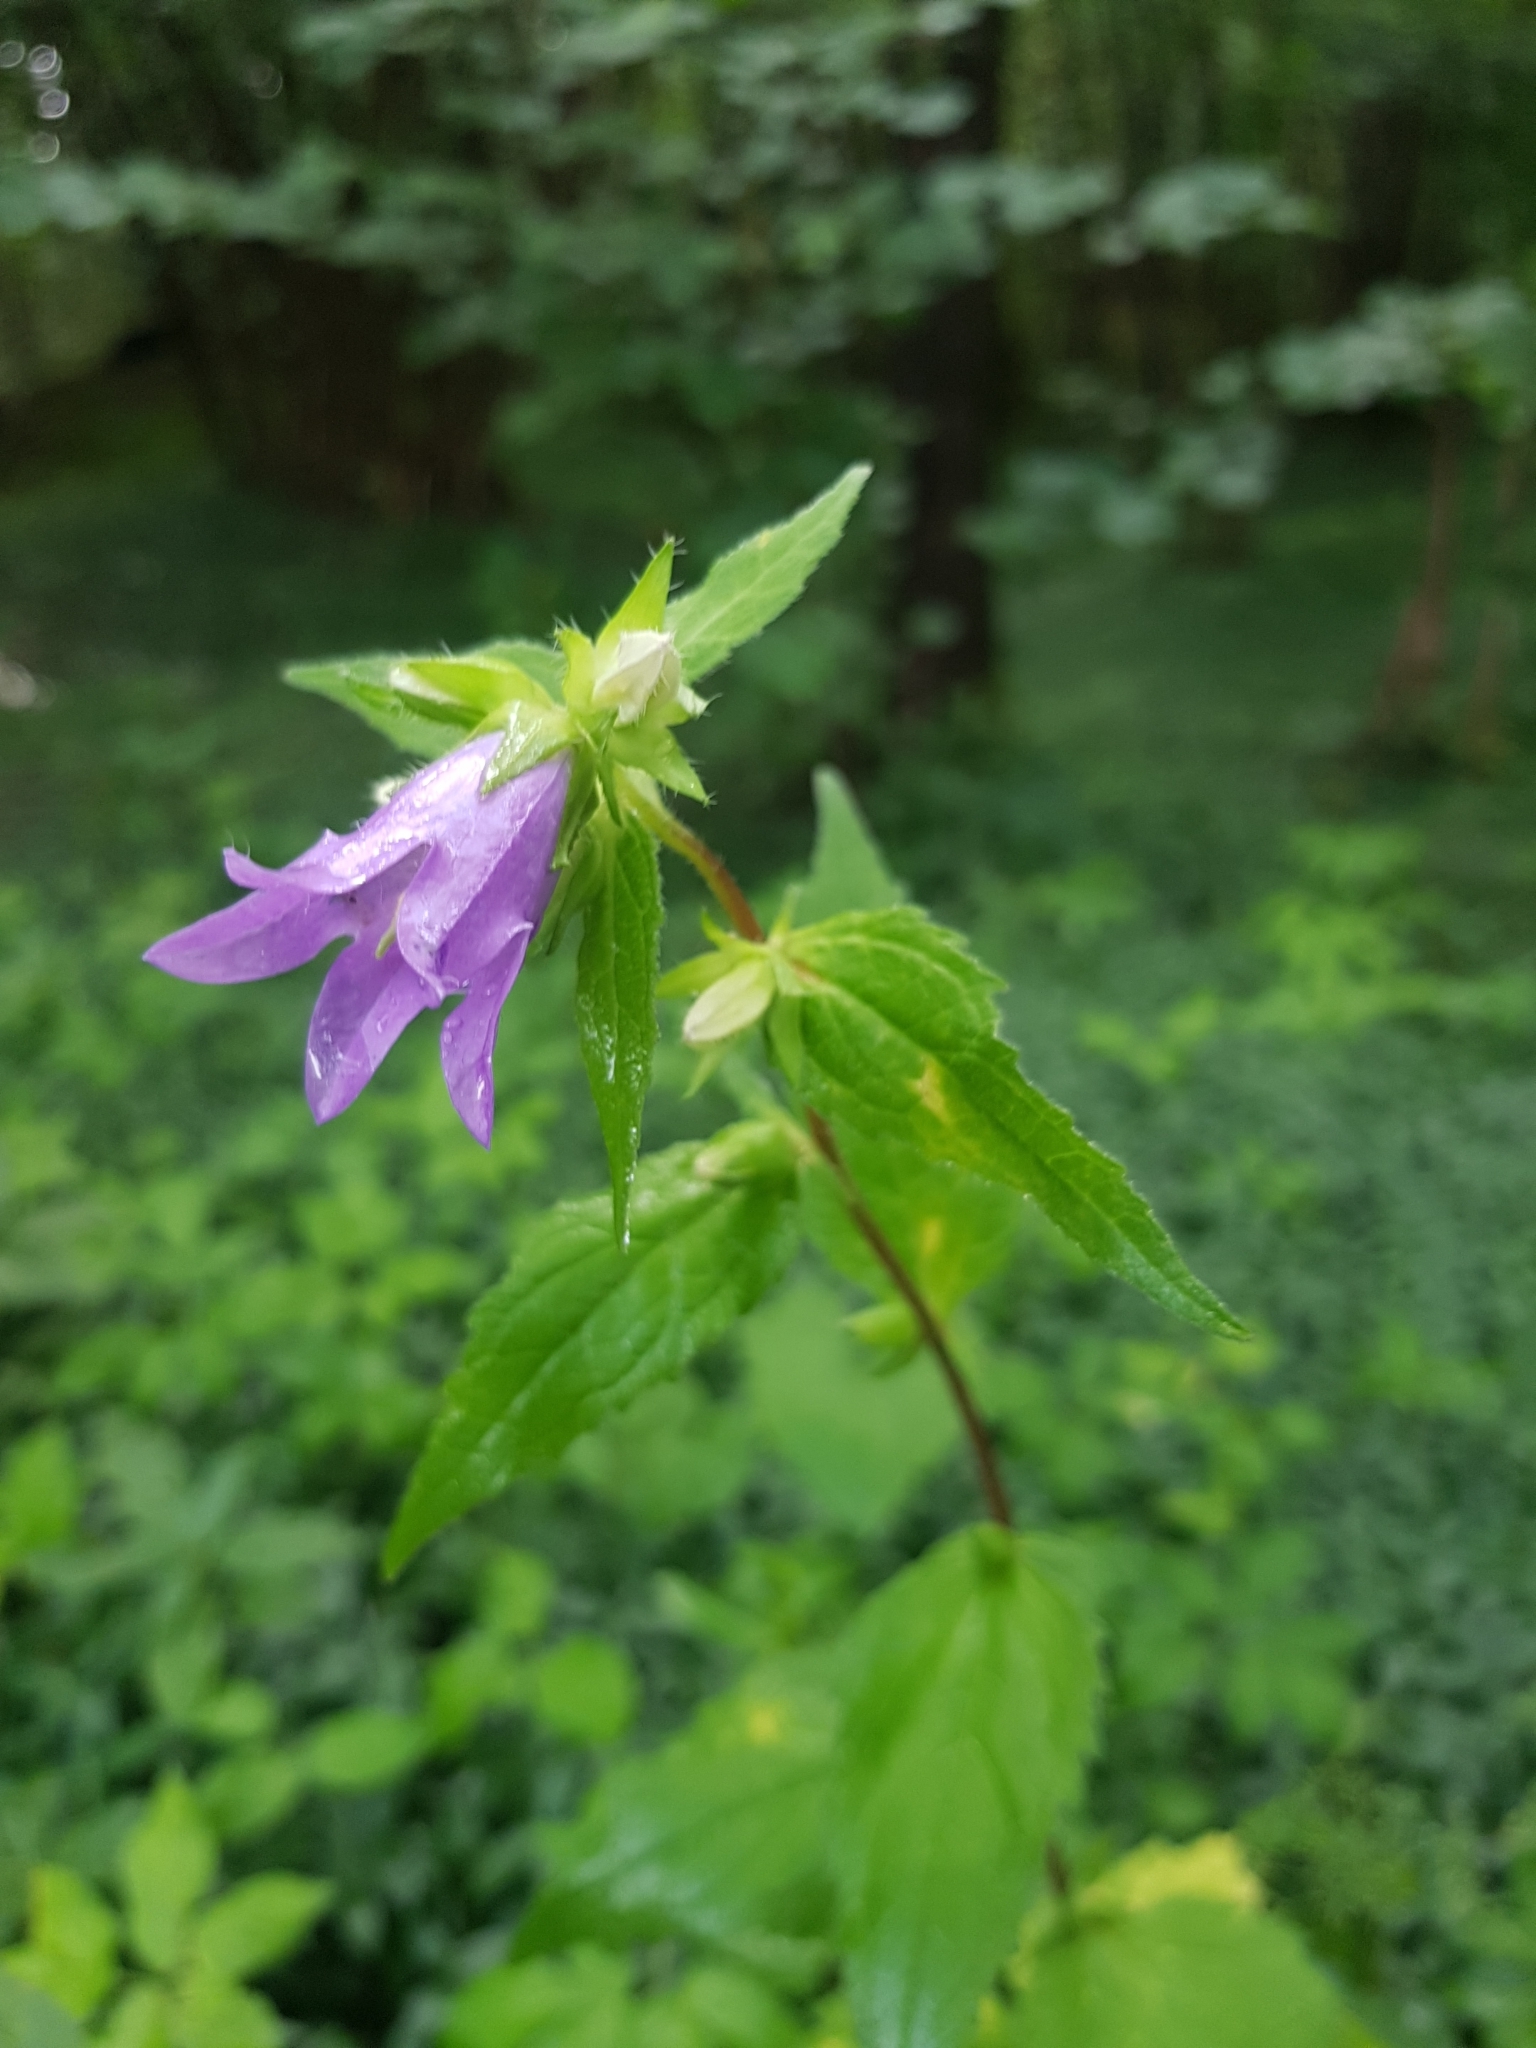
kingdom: Plantae
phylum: Tracheophyta
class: Magnoliopsida
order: Asterales
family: Campanulaceae
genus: Campanula
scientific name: Campanula trachelium
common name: Nettle-leaved bellflower
